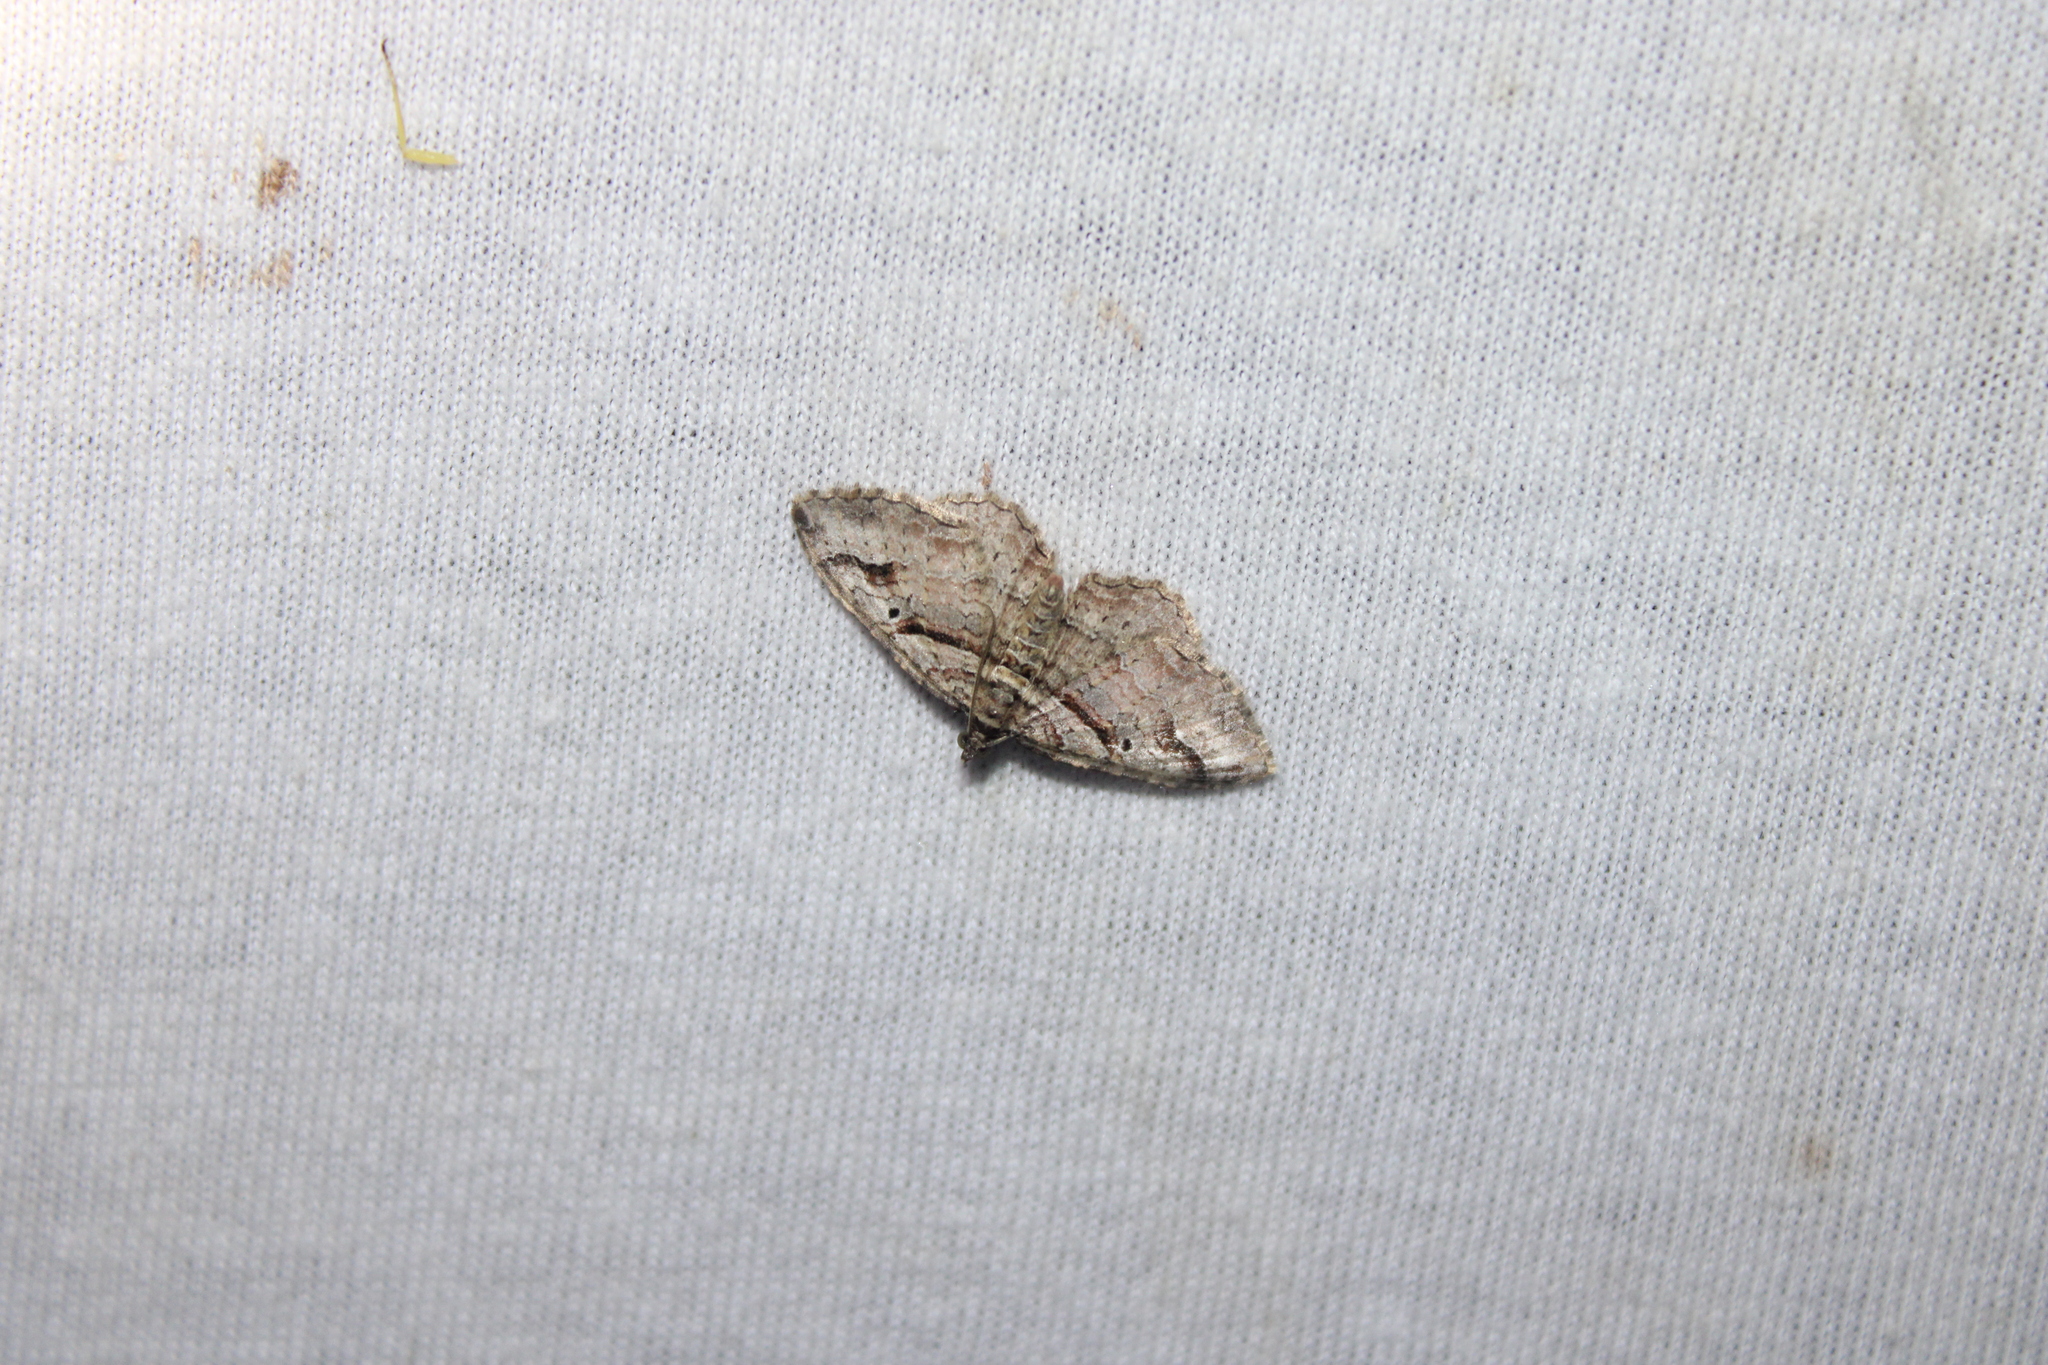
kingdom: Animalia
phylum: Arthropoda
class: Insecta
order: Lepidoptera
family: Geometridae
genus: Costaconvexa
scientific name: Costaconvexa centrostrigaria
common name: Bent-line carpet
